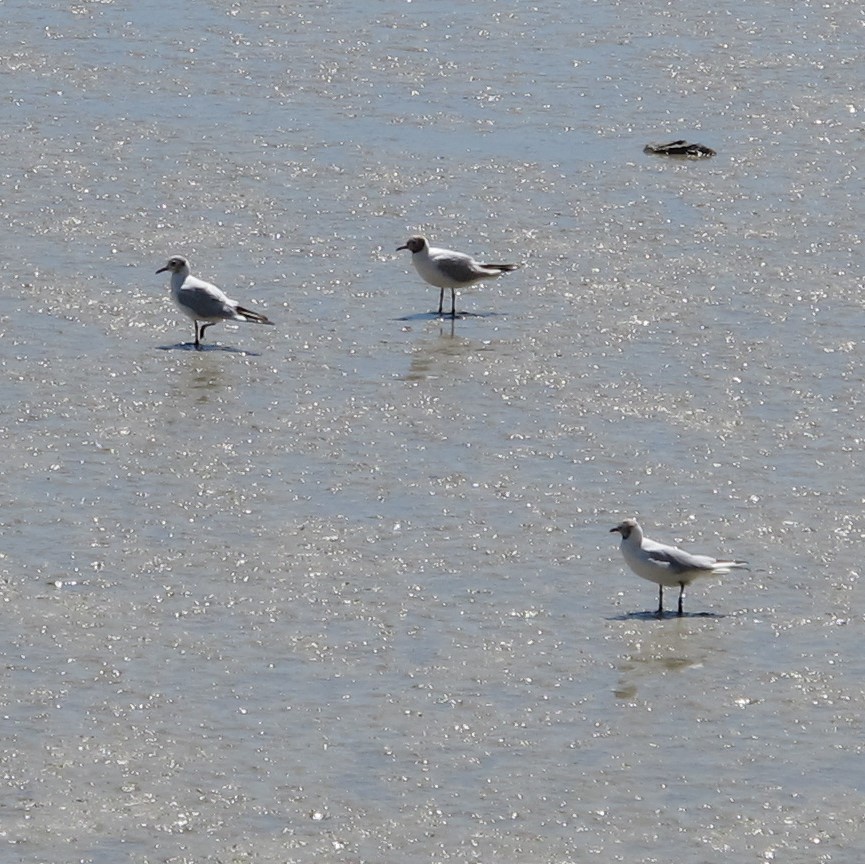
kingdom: Animalia
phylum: Chordata
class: Aves
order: Charadriiformes
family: Laridae
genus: Chroicocephalus
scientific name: Chroicocephalus ridibundus
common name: Black-headed gull
